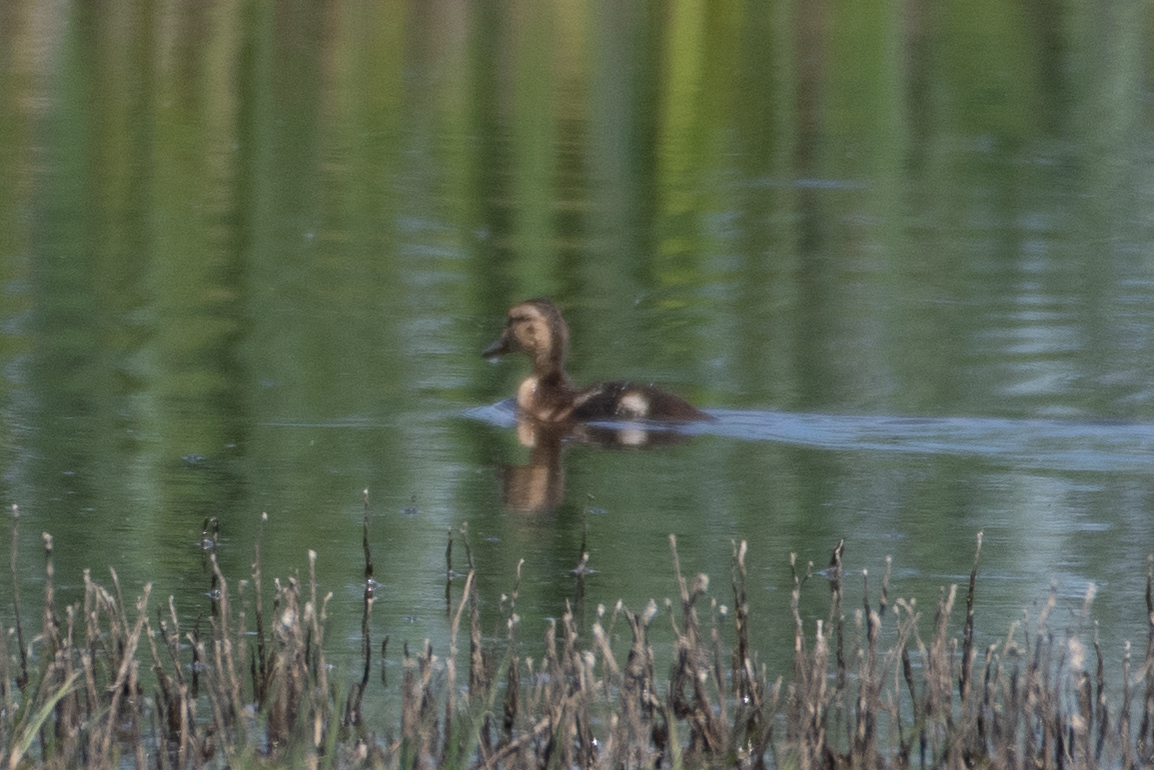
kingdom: Animalia
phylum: Chordata
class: Aves
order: Anseriformes
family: Anatidae
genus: Anas
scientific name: Anas platyrhynchos
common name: Mallard
